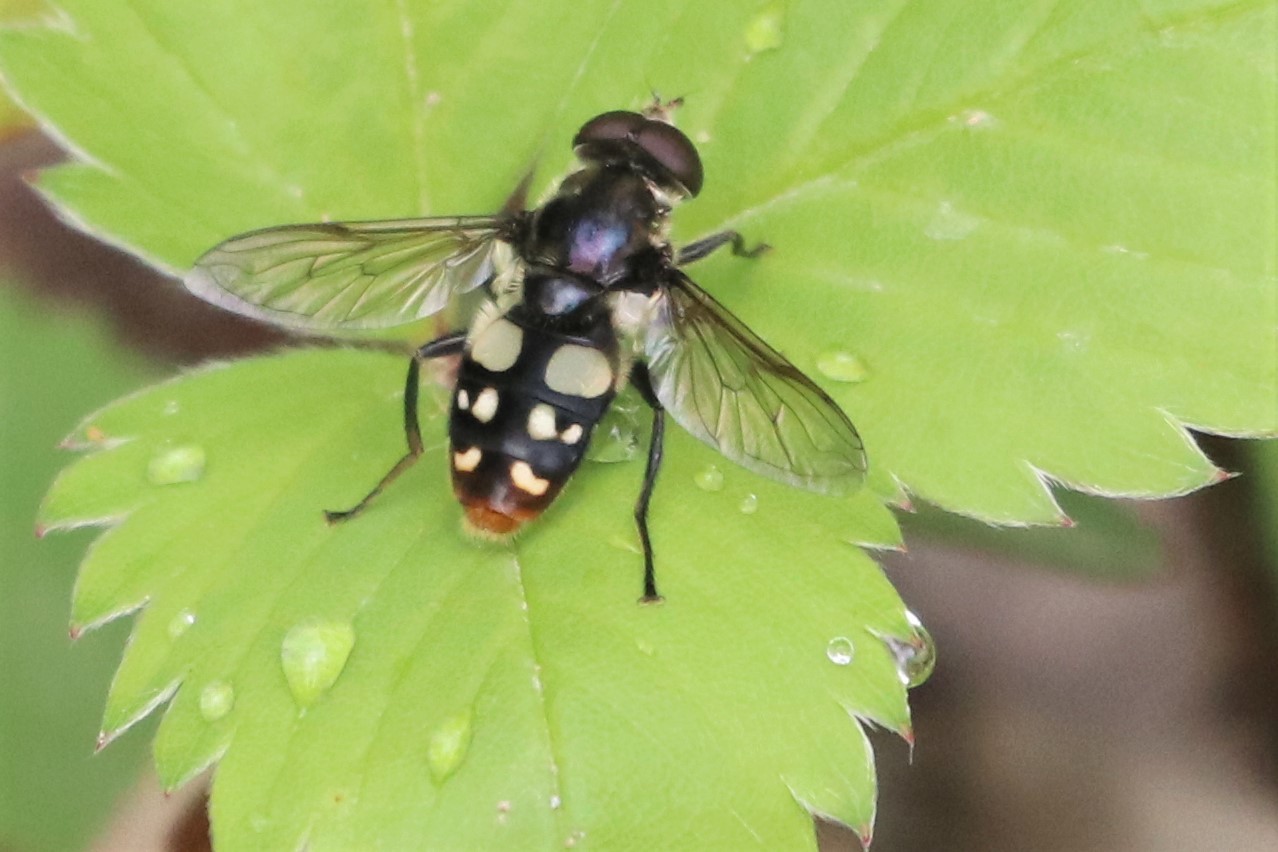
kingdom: Animalia
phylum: Arthropoda
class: Insecta
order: Diptera
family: Syrphidae
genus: Sericomyia
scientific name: Sericomyia lata
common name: White-spotted pond fly
